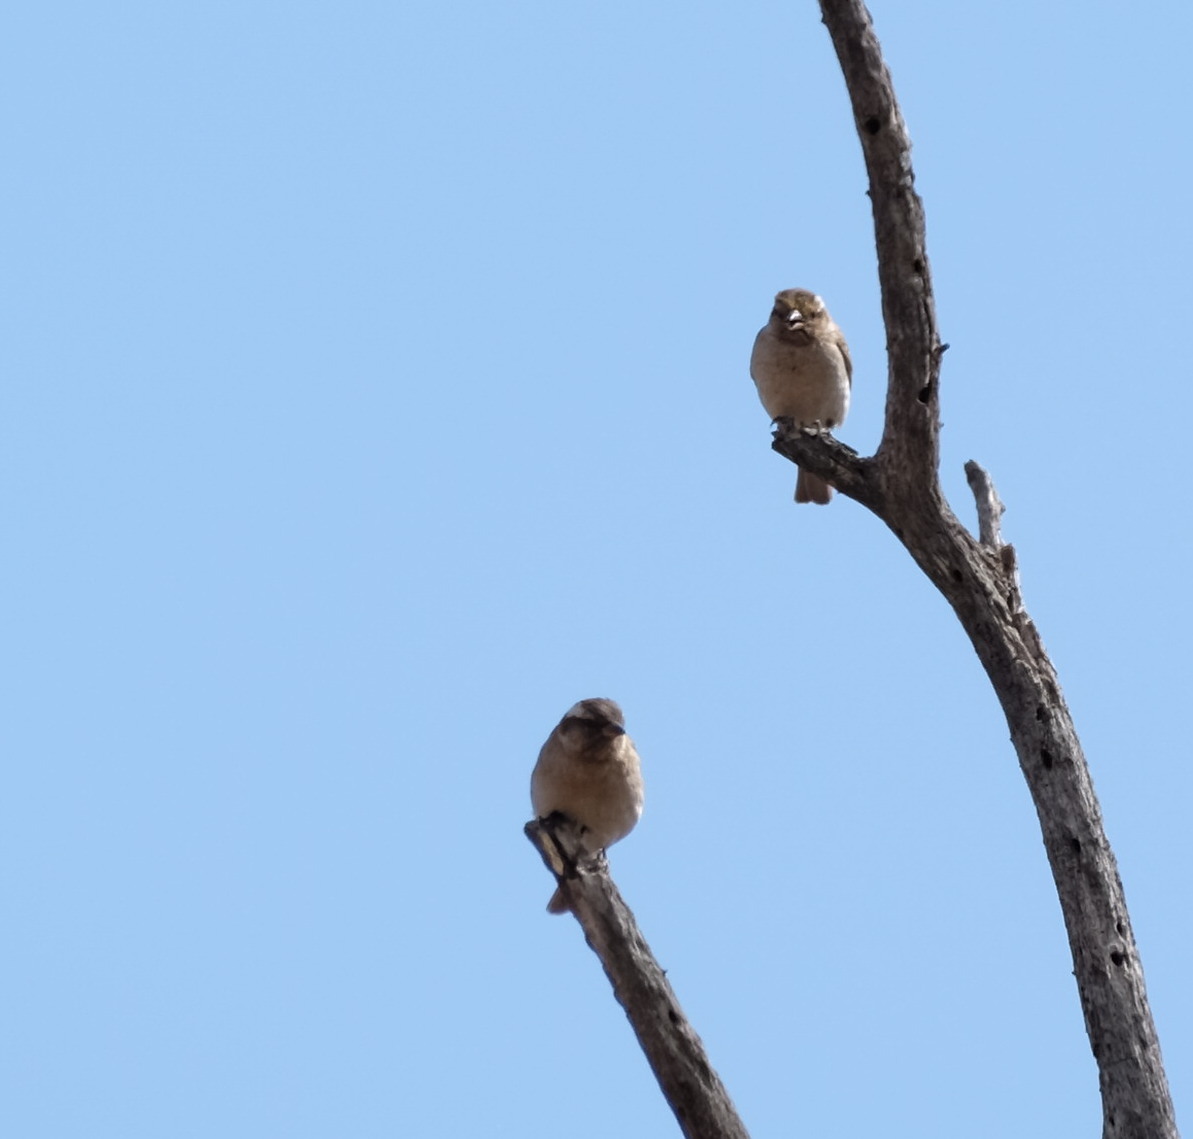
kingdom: Animalia
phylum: Chordata
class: Aves
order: Passeriformes
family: Passeridae
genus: Gymnoris
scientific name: Gymnoris superciliaris
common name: Yellow-throated petronia
